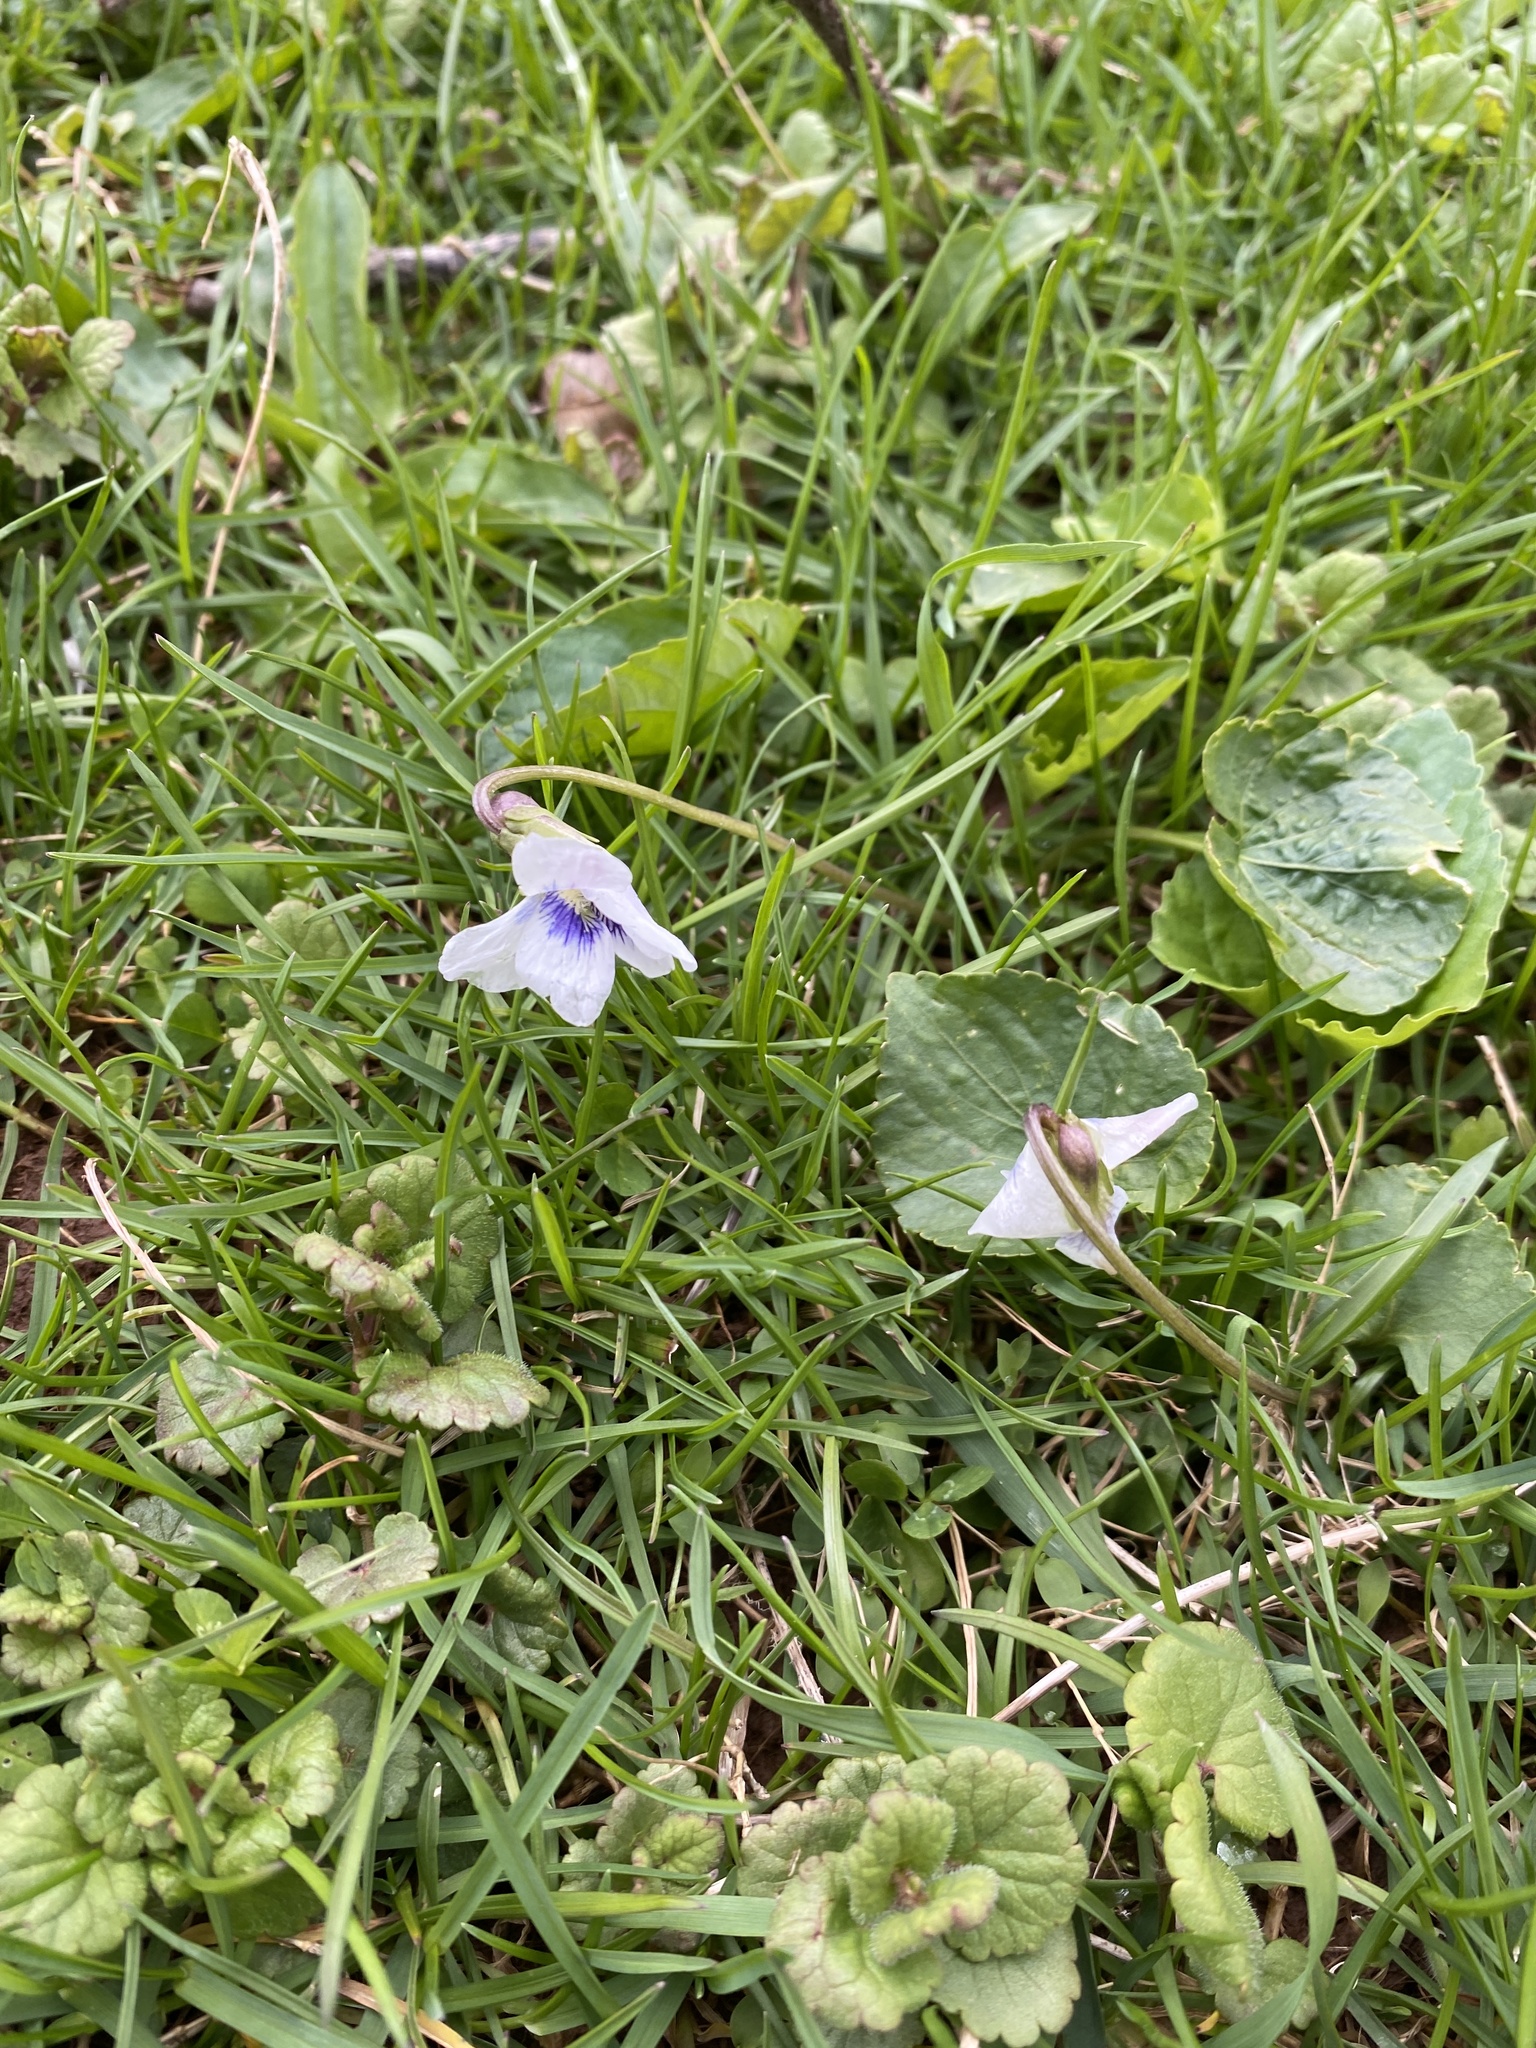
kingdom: Plantae
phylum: Tracheophyta
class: Magnoliopsida
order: Malpighiales
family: Violaceae
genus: Viola
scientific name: Viola sororia
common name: Dooryard violet
